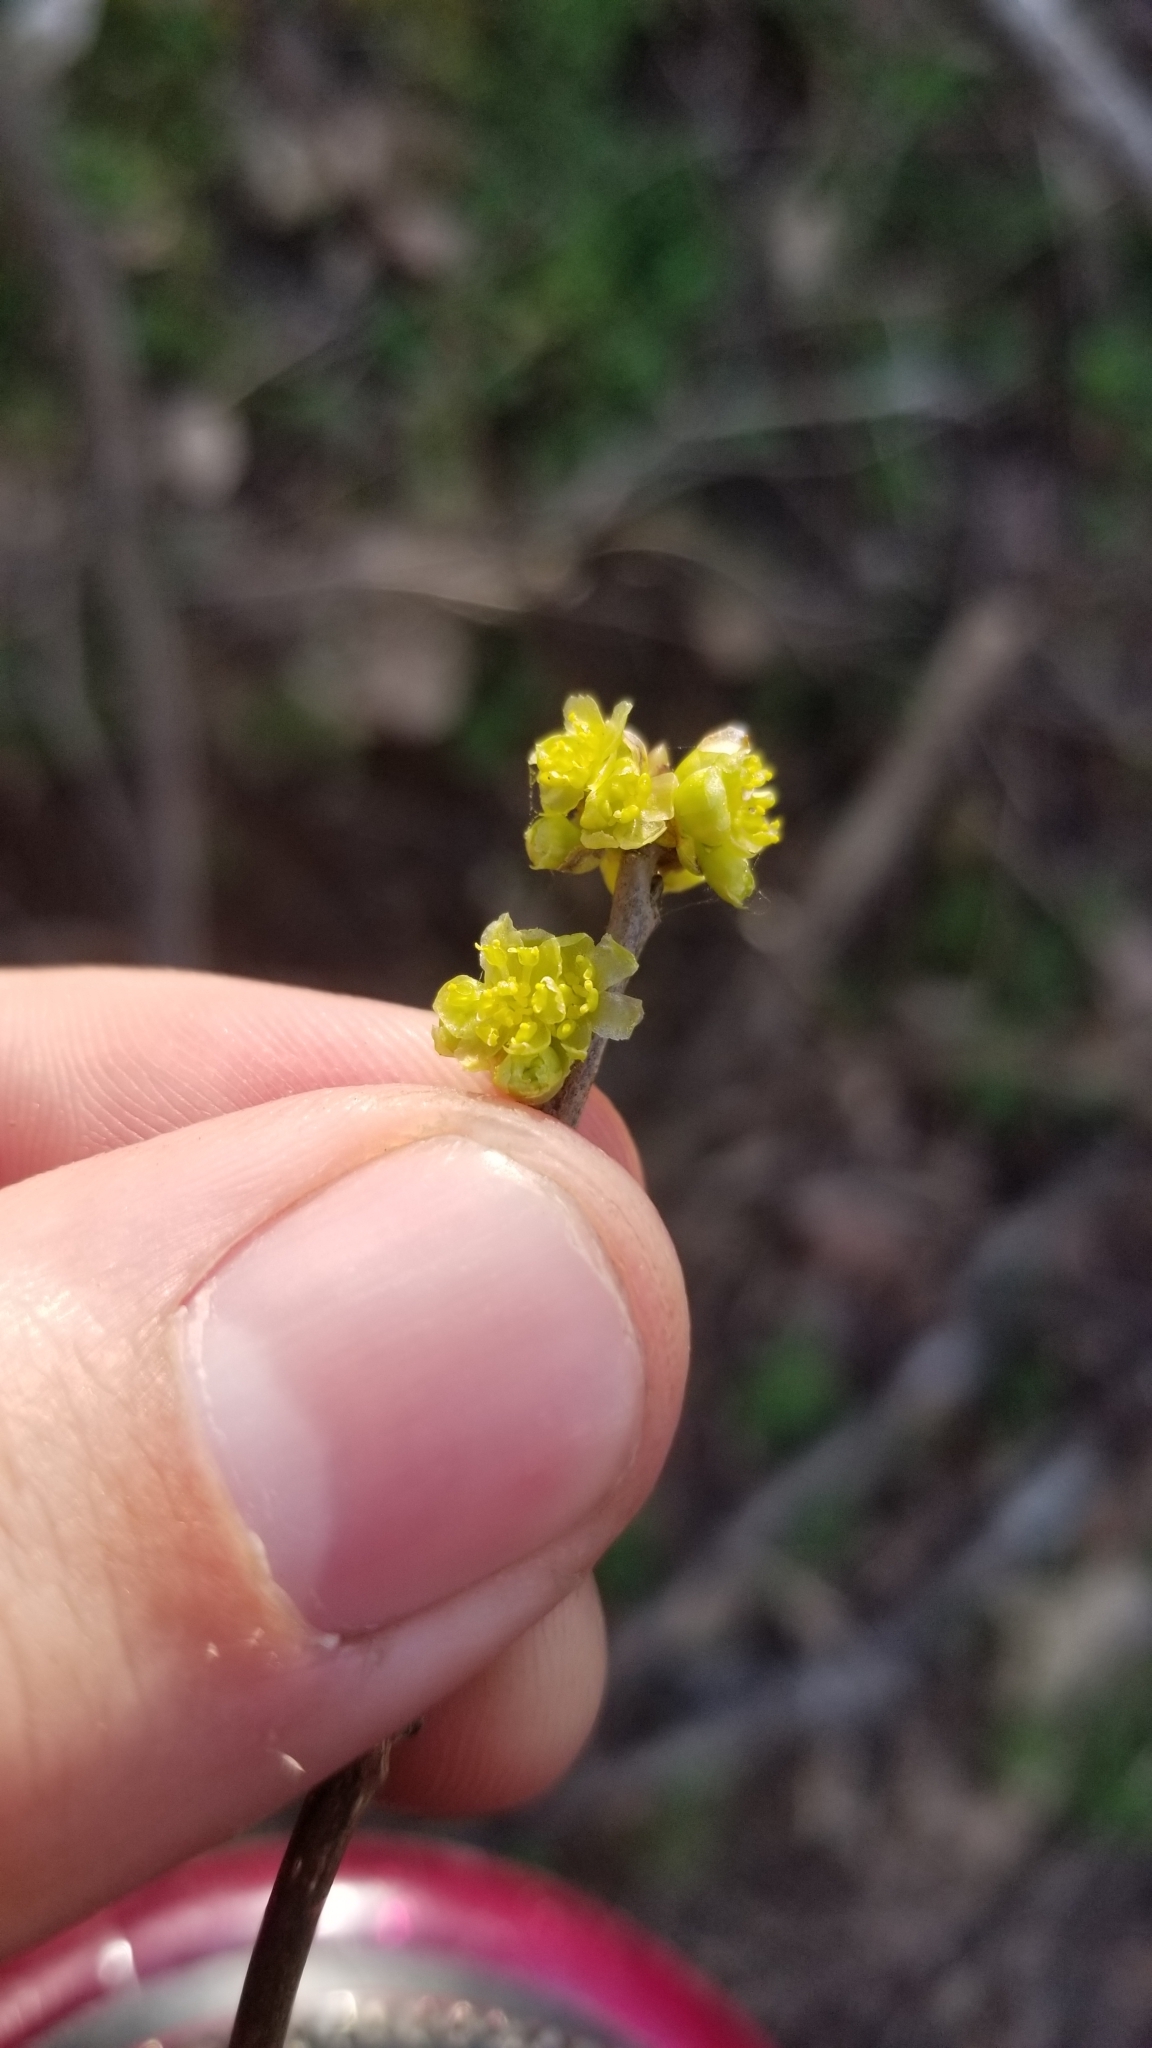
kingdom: Plantae
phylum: Tracheophyta
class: Magnoliopsida
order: Laurales
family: Lauraceae
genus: Lindera
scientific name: Lindera benzoin
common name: Spicebush
